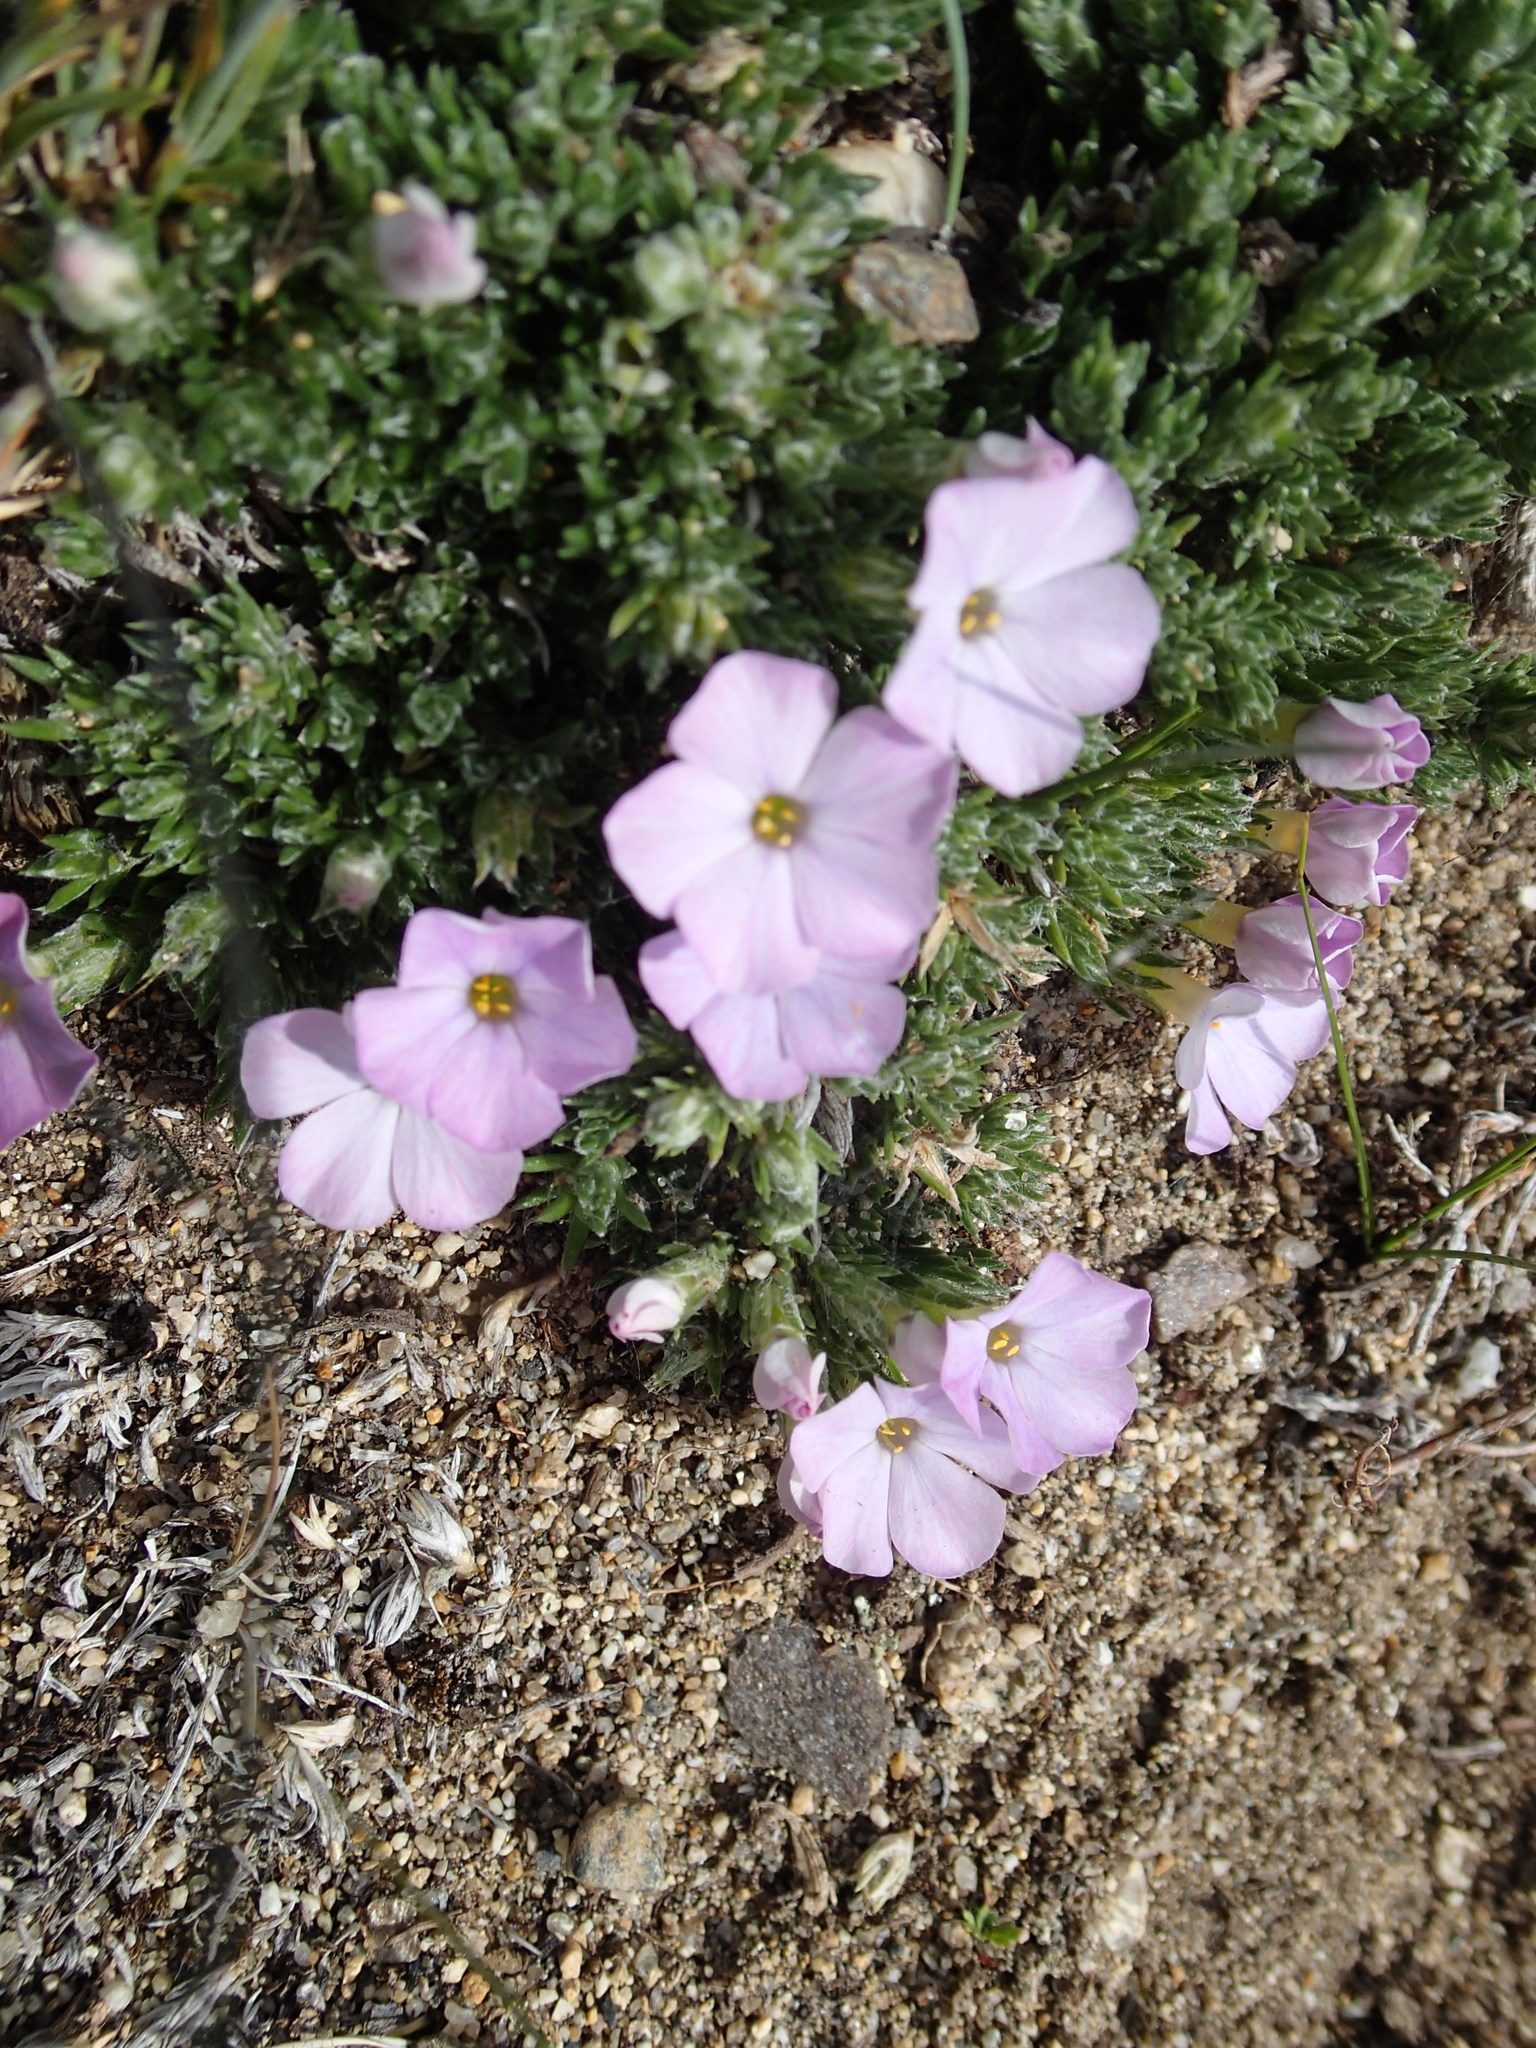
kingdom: Plantae
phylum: Tracheophyta
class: Magnoliopsida
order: Ericales
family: Polemoniaceae
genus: Phlox
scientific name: Phlox richardsonii
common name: Richardson's phlox
